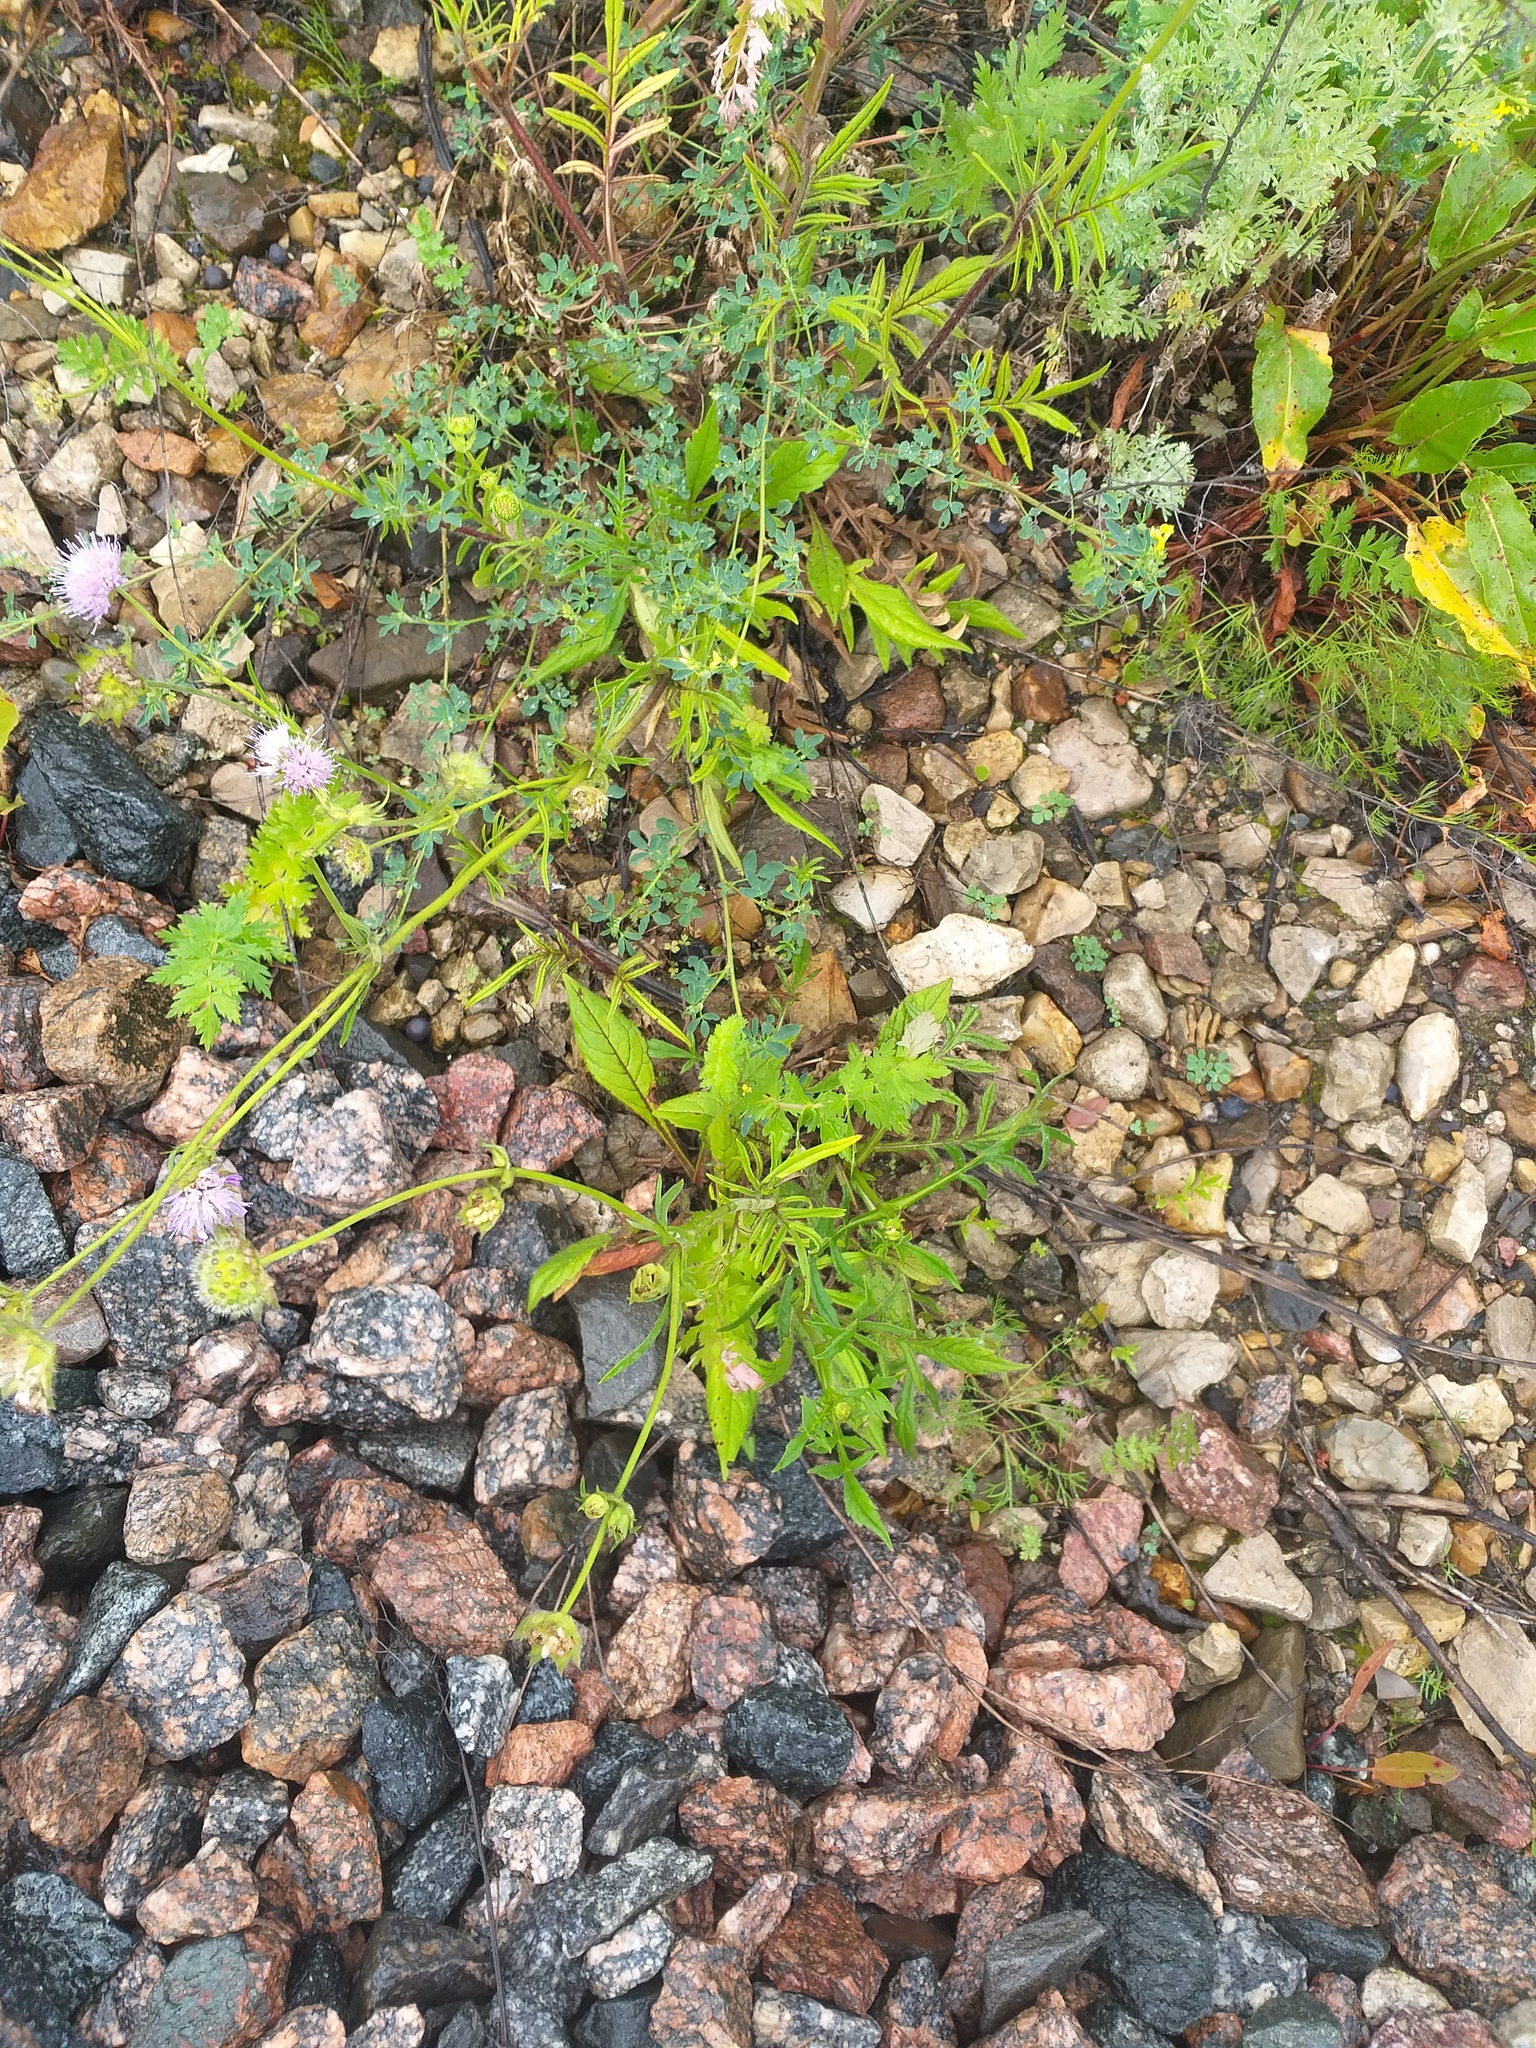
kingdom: Plantae
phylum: Tracheophyta
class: Magnoliopsida
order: Dipsacales
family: Caprifoliaceae
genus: Knautia
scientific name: Knautia arvensis
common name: Field scabiosa
